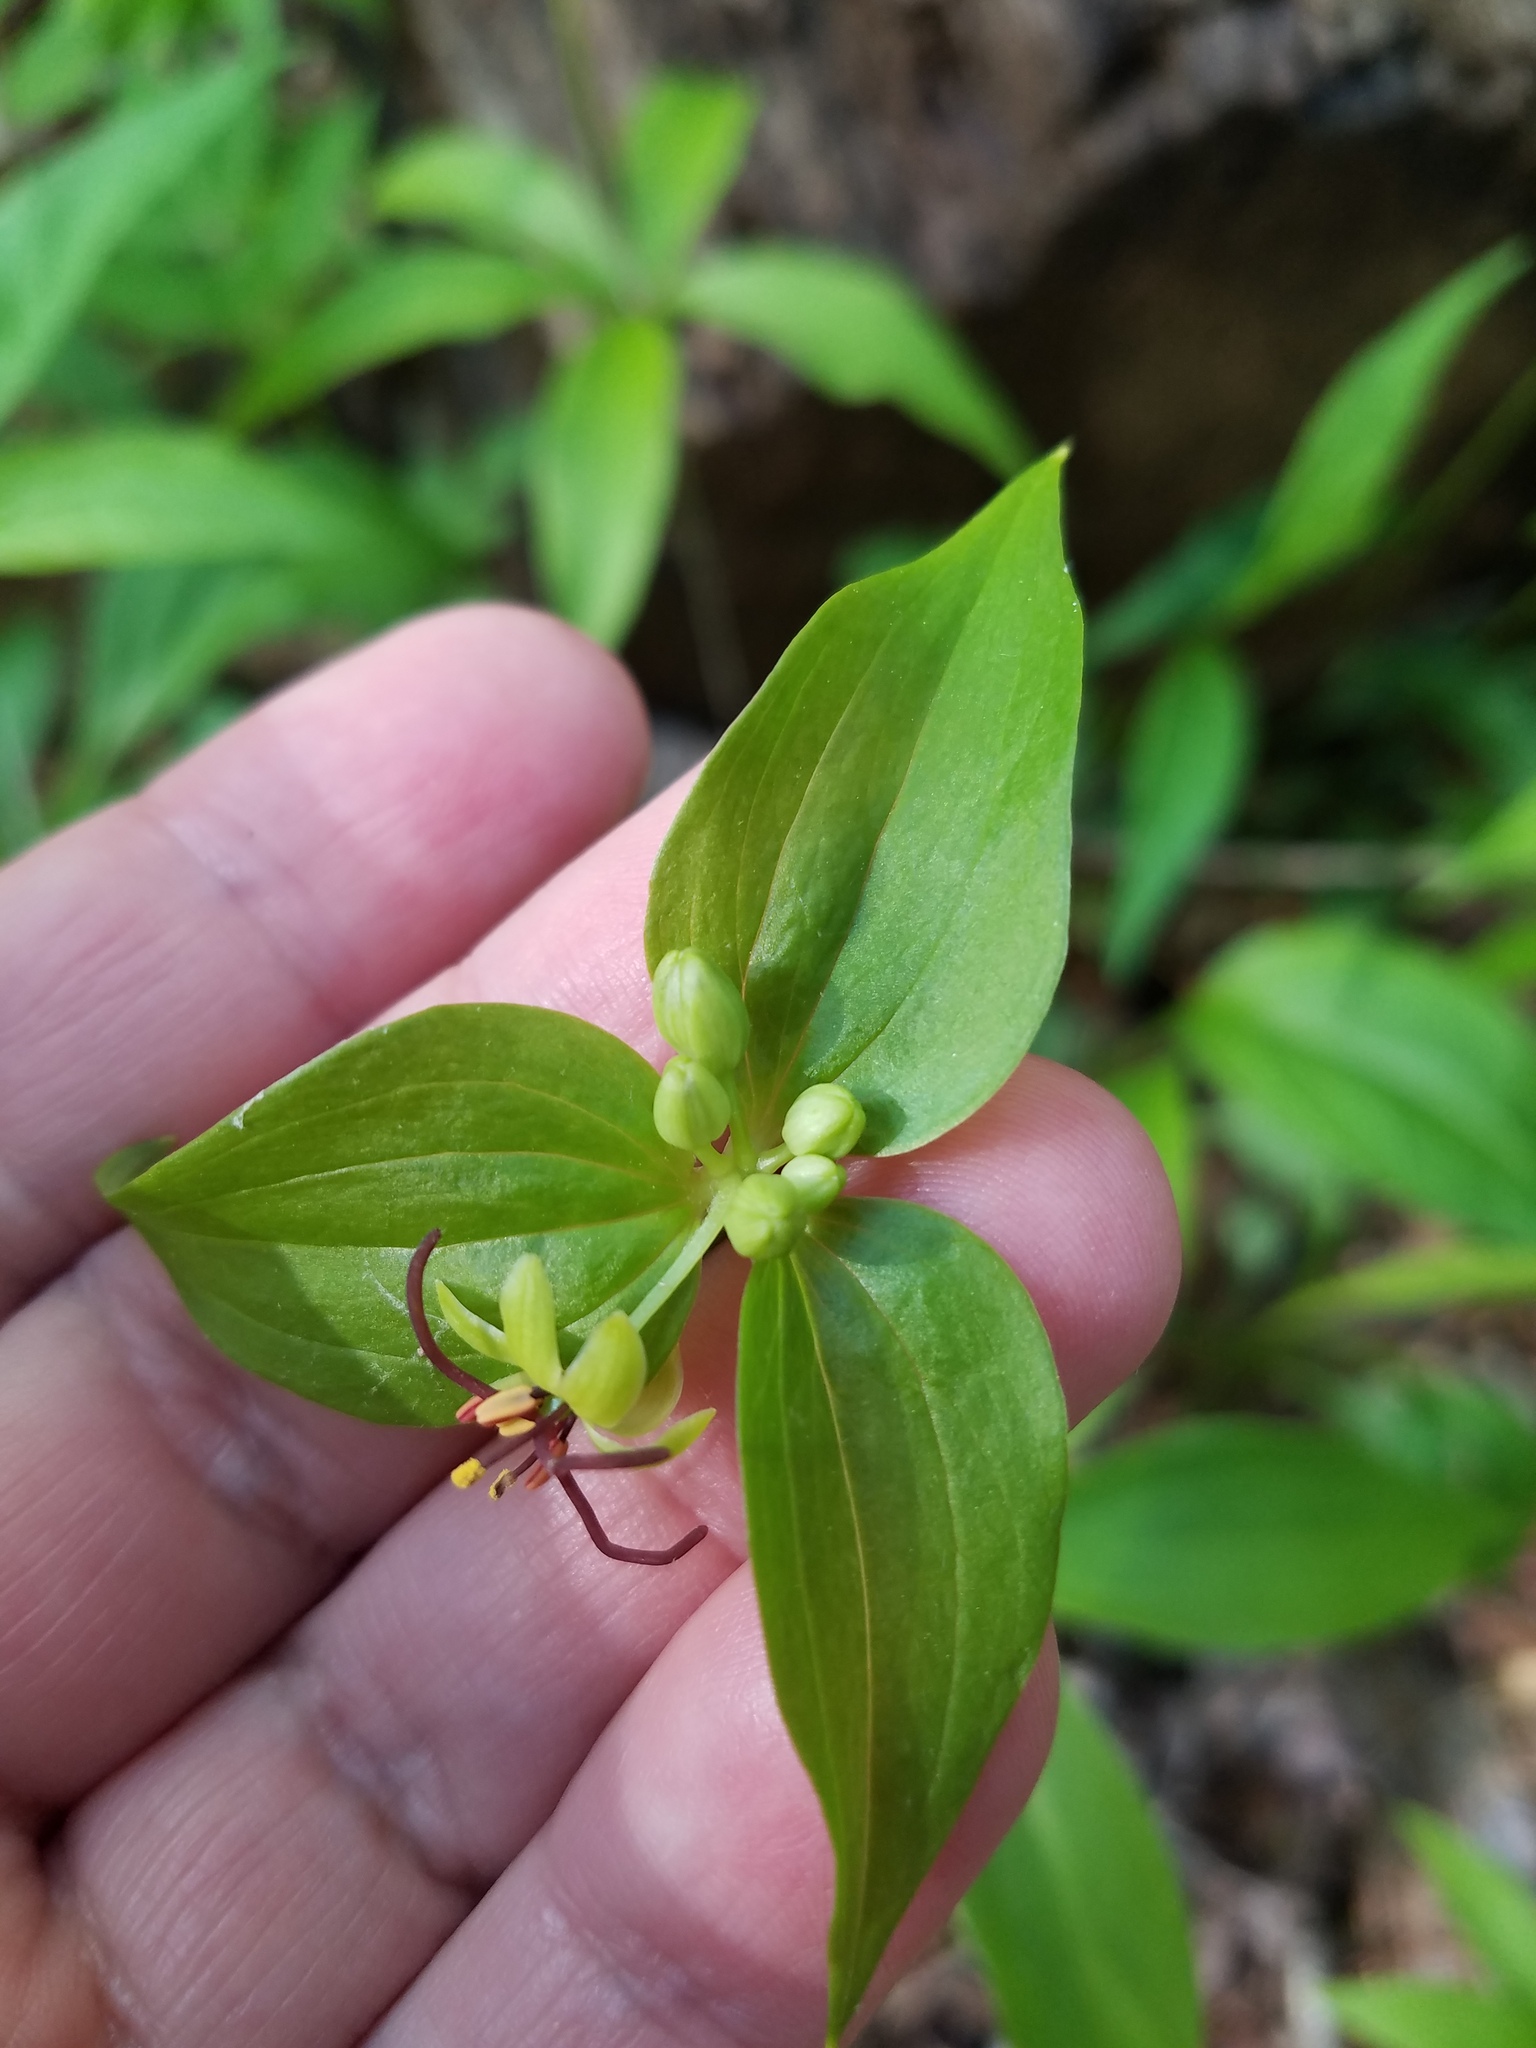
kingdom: Plantae
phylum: Tracheophyta
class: Liliopsida
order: Liliales
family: Liliaceae
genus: Medeola
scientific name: Medeola virginiana
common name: Indian cucumber-root
